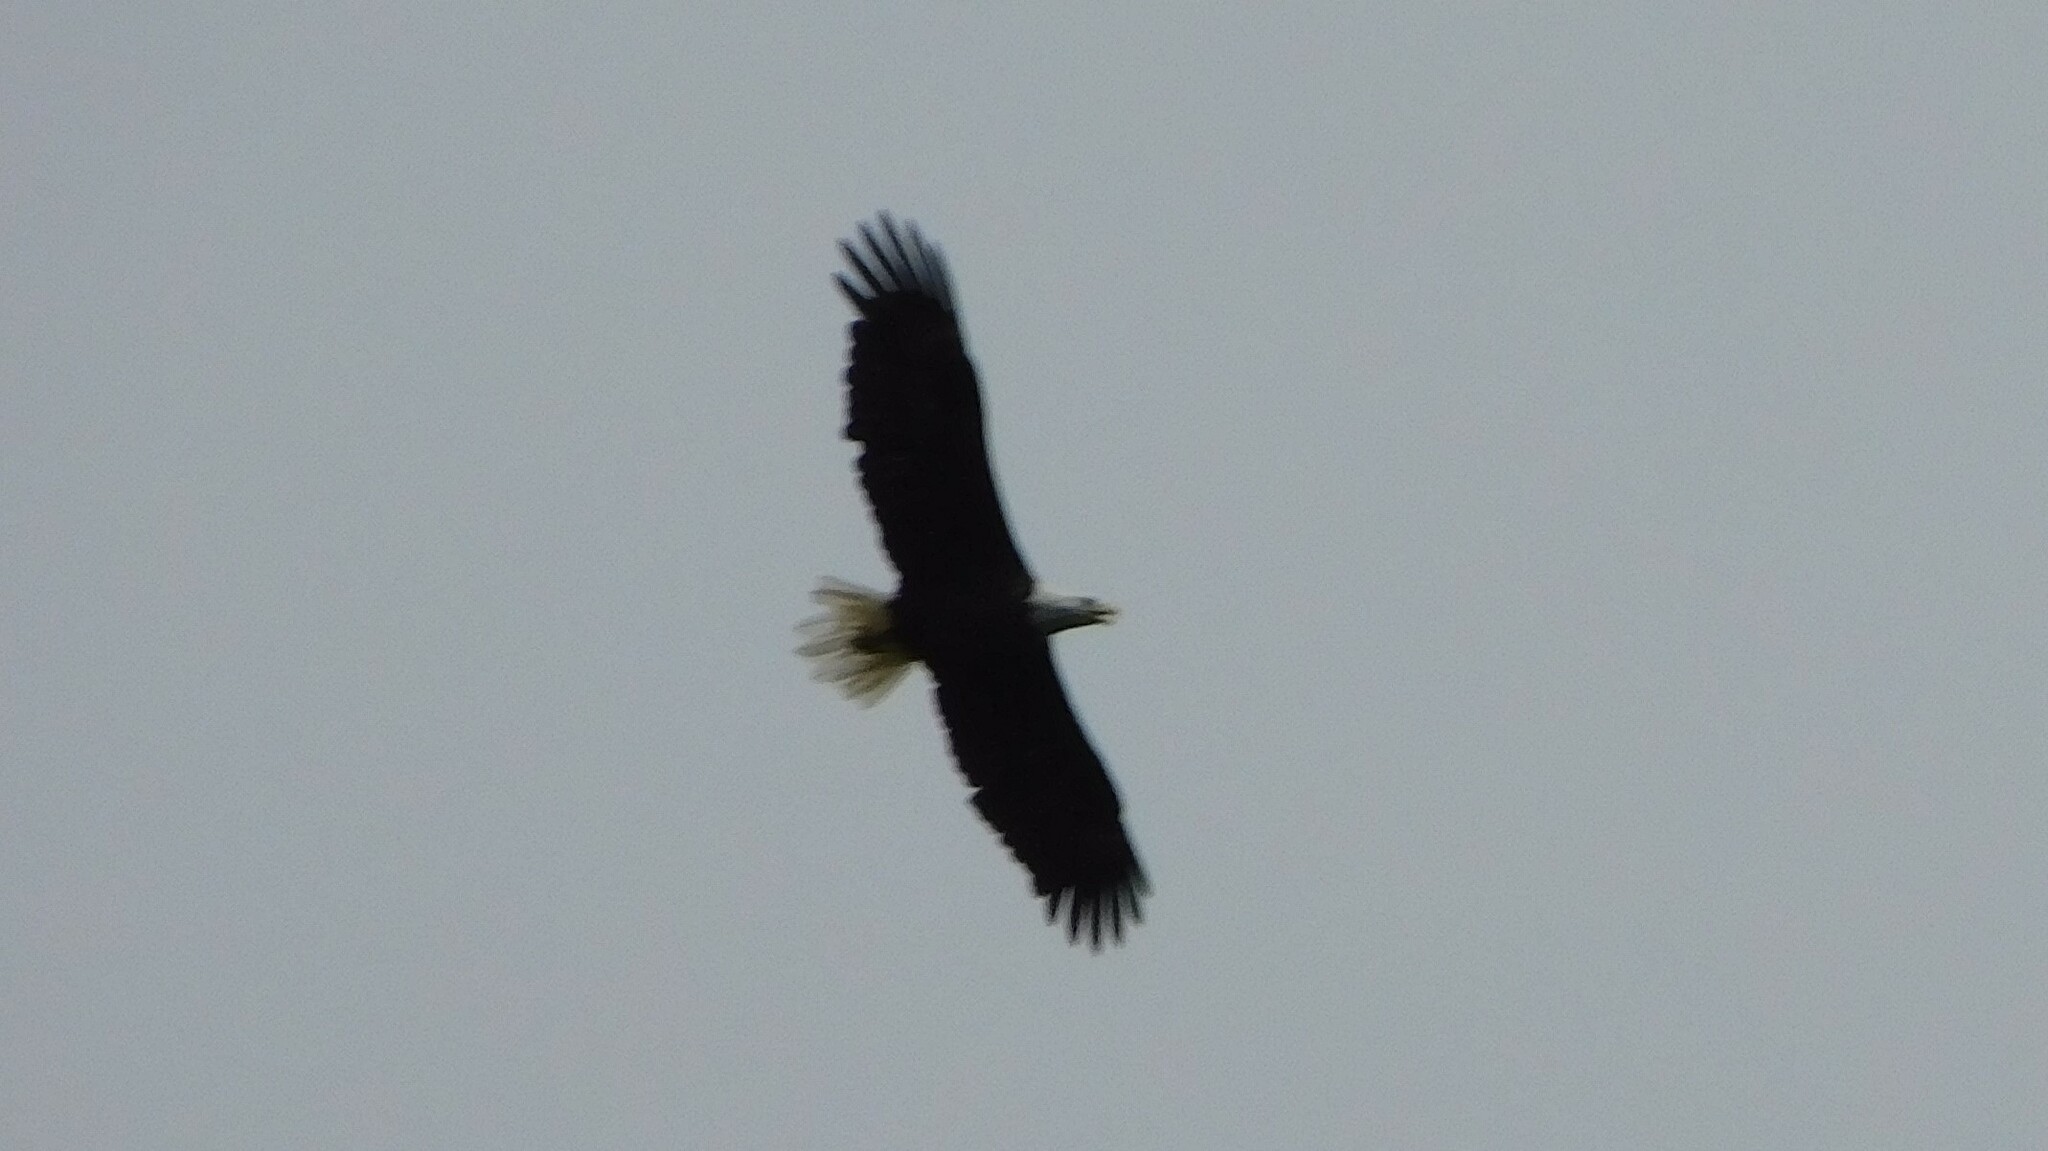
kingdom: Animalia
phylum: Chordata
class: Aves
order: Accipitriformes
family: Accipitridae
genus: Haliaeetus
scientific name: Haliaeetus leucocephalus
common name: Bald eagle
